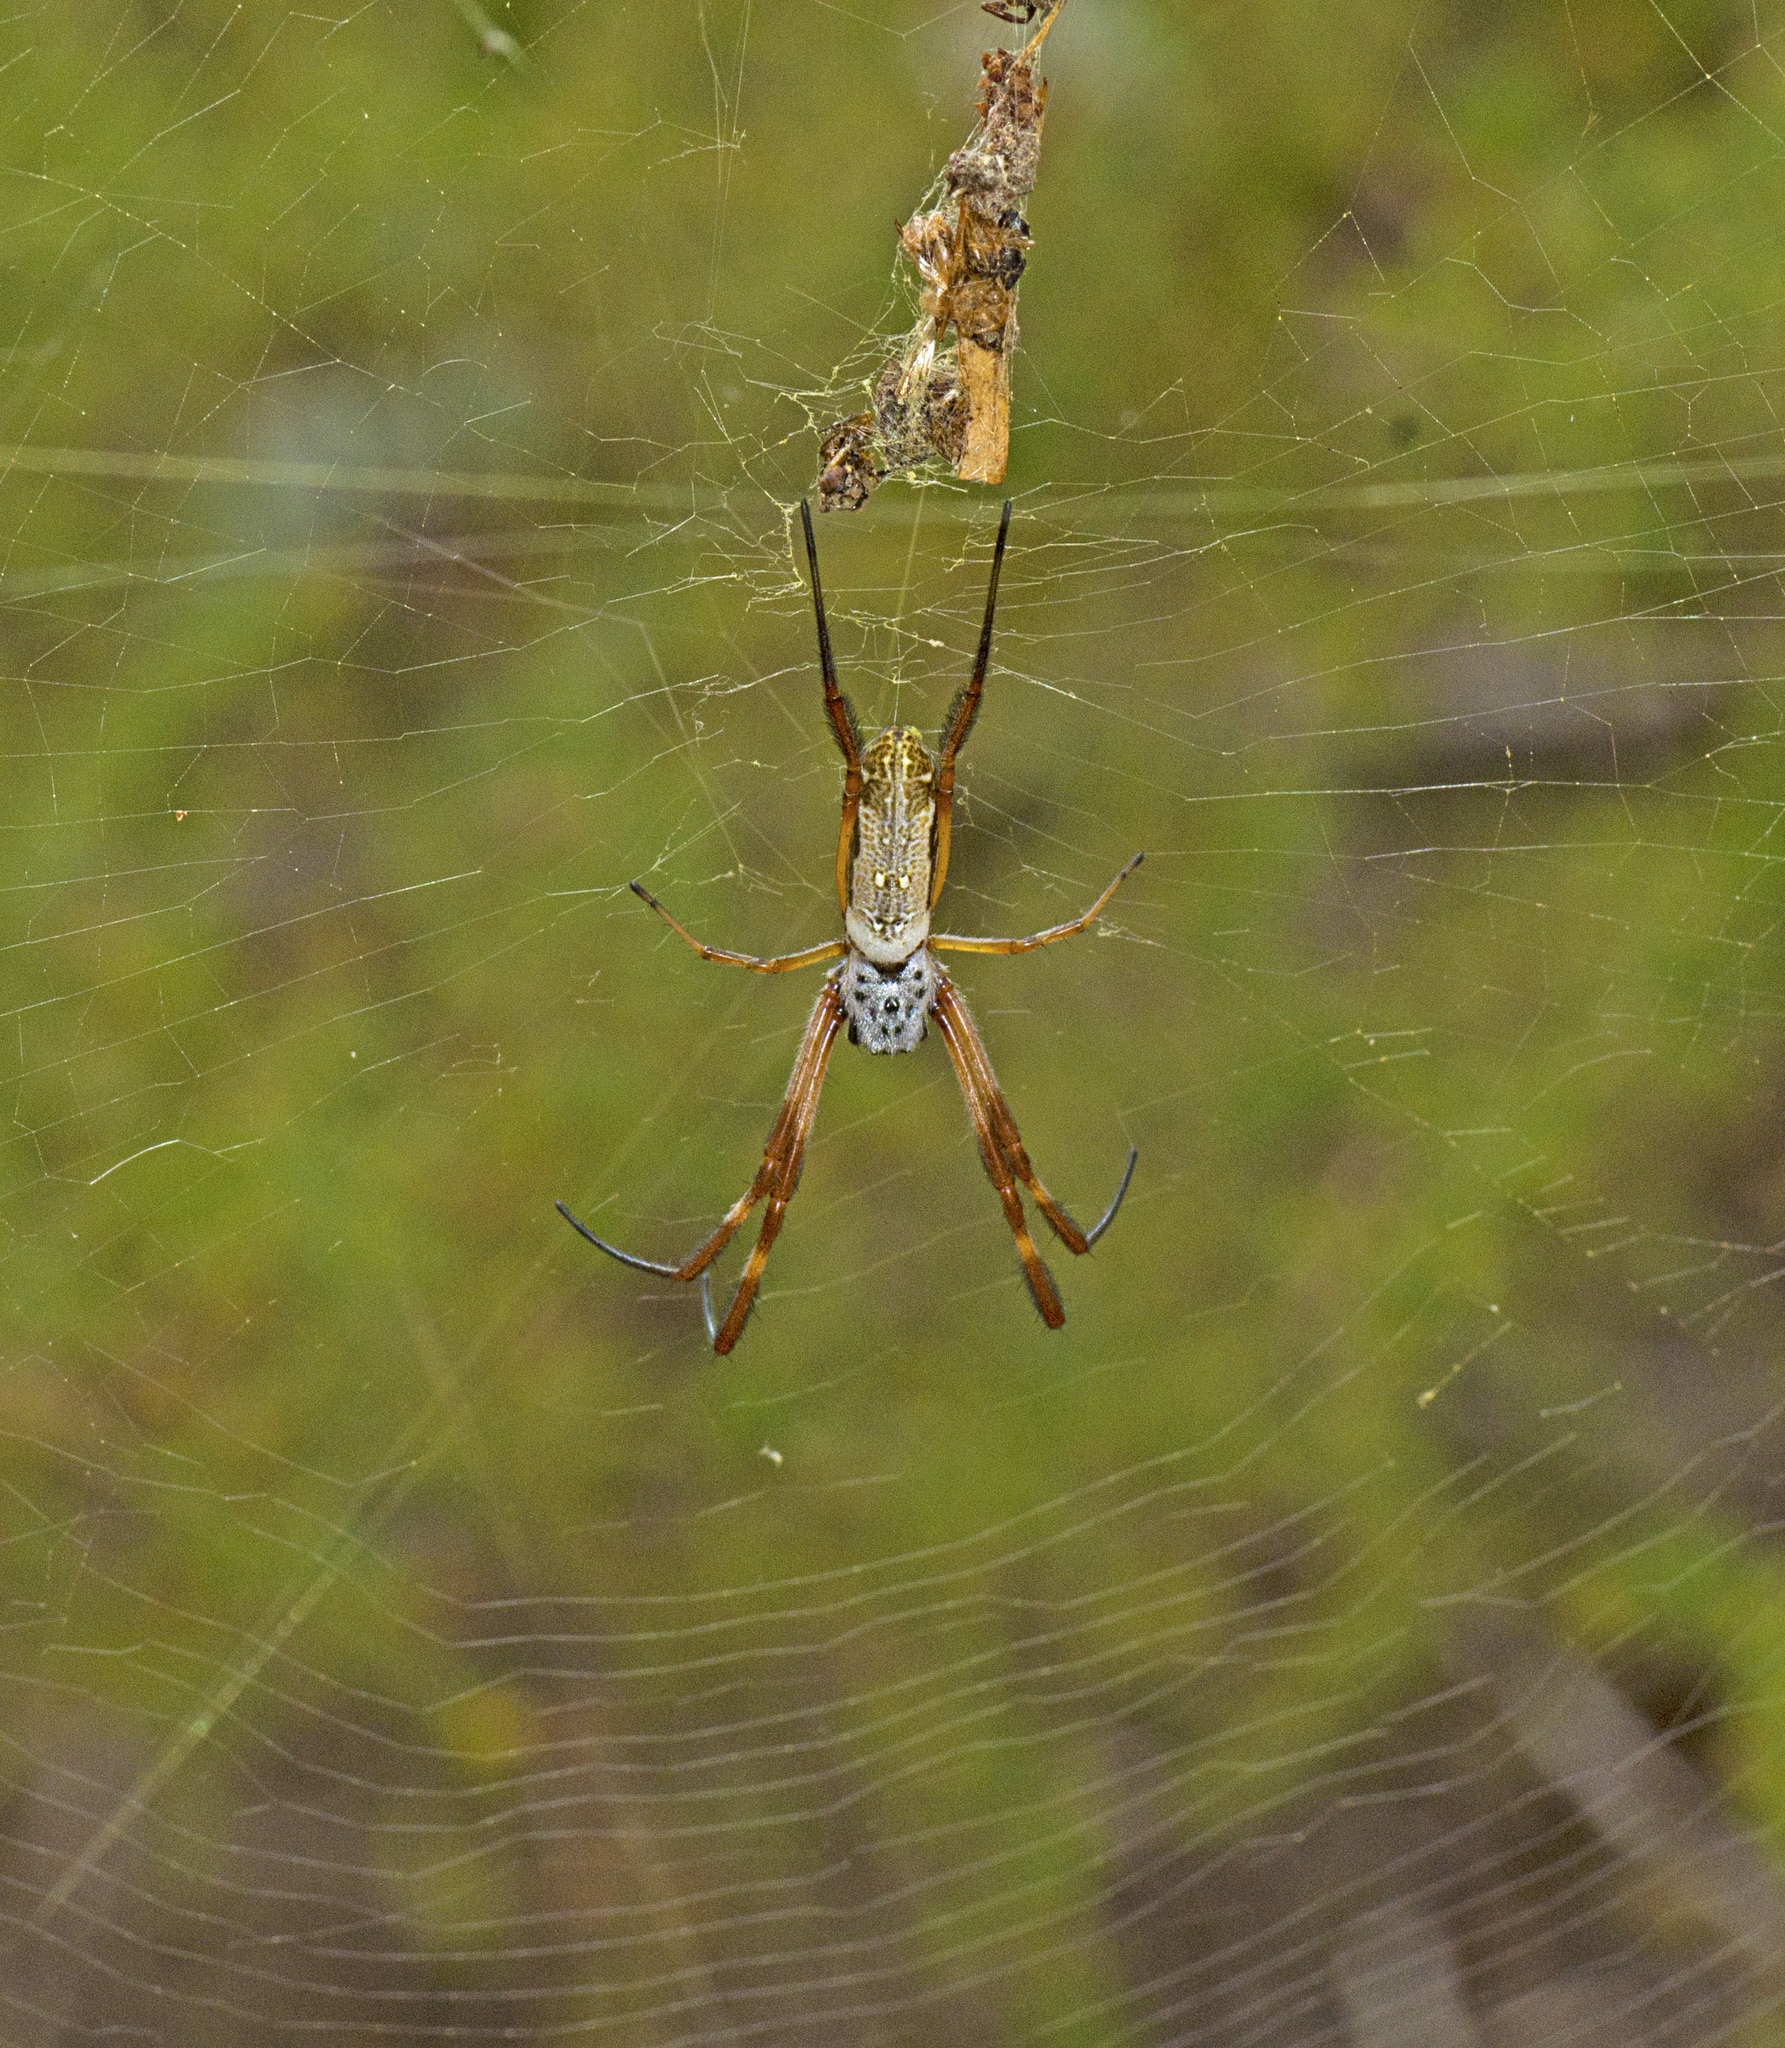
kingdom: Animalia
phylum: Arthropoda
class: Arachnida
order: Araneae
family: Araneidae
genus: Trichonephila
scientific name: Trichonephila edulis
